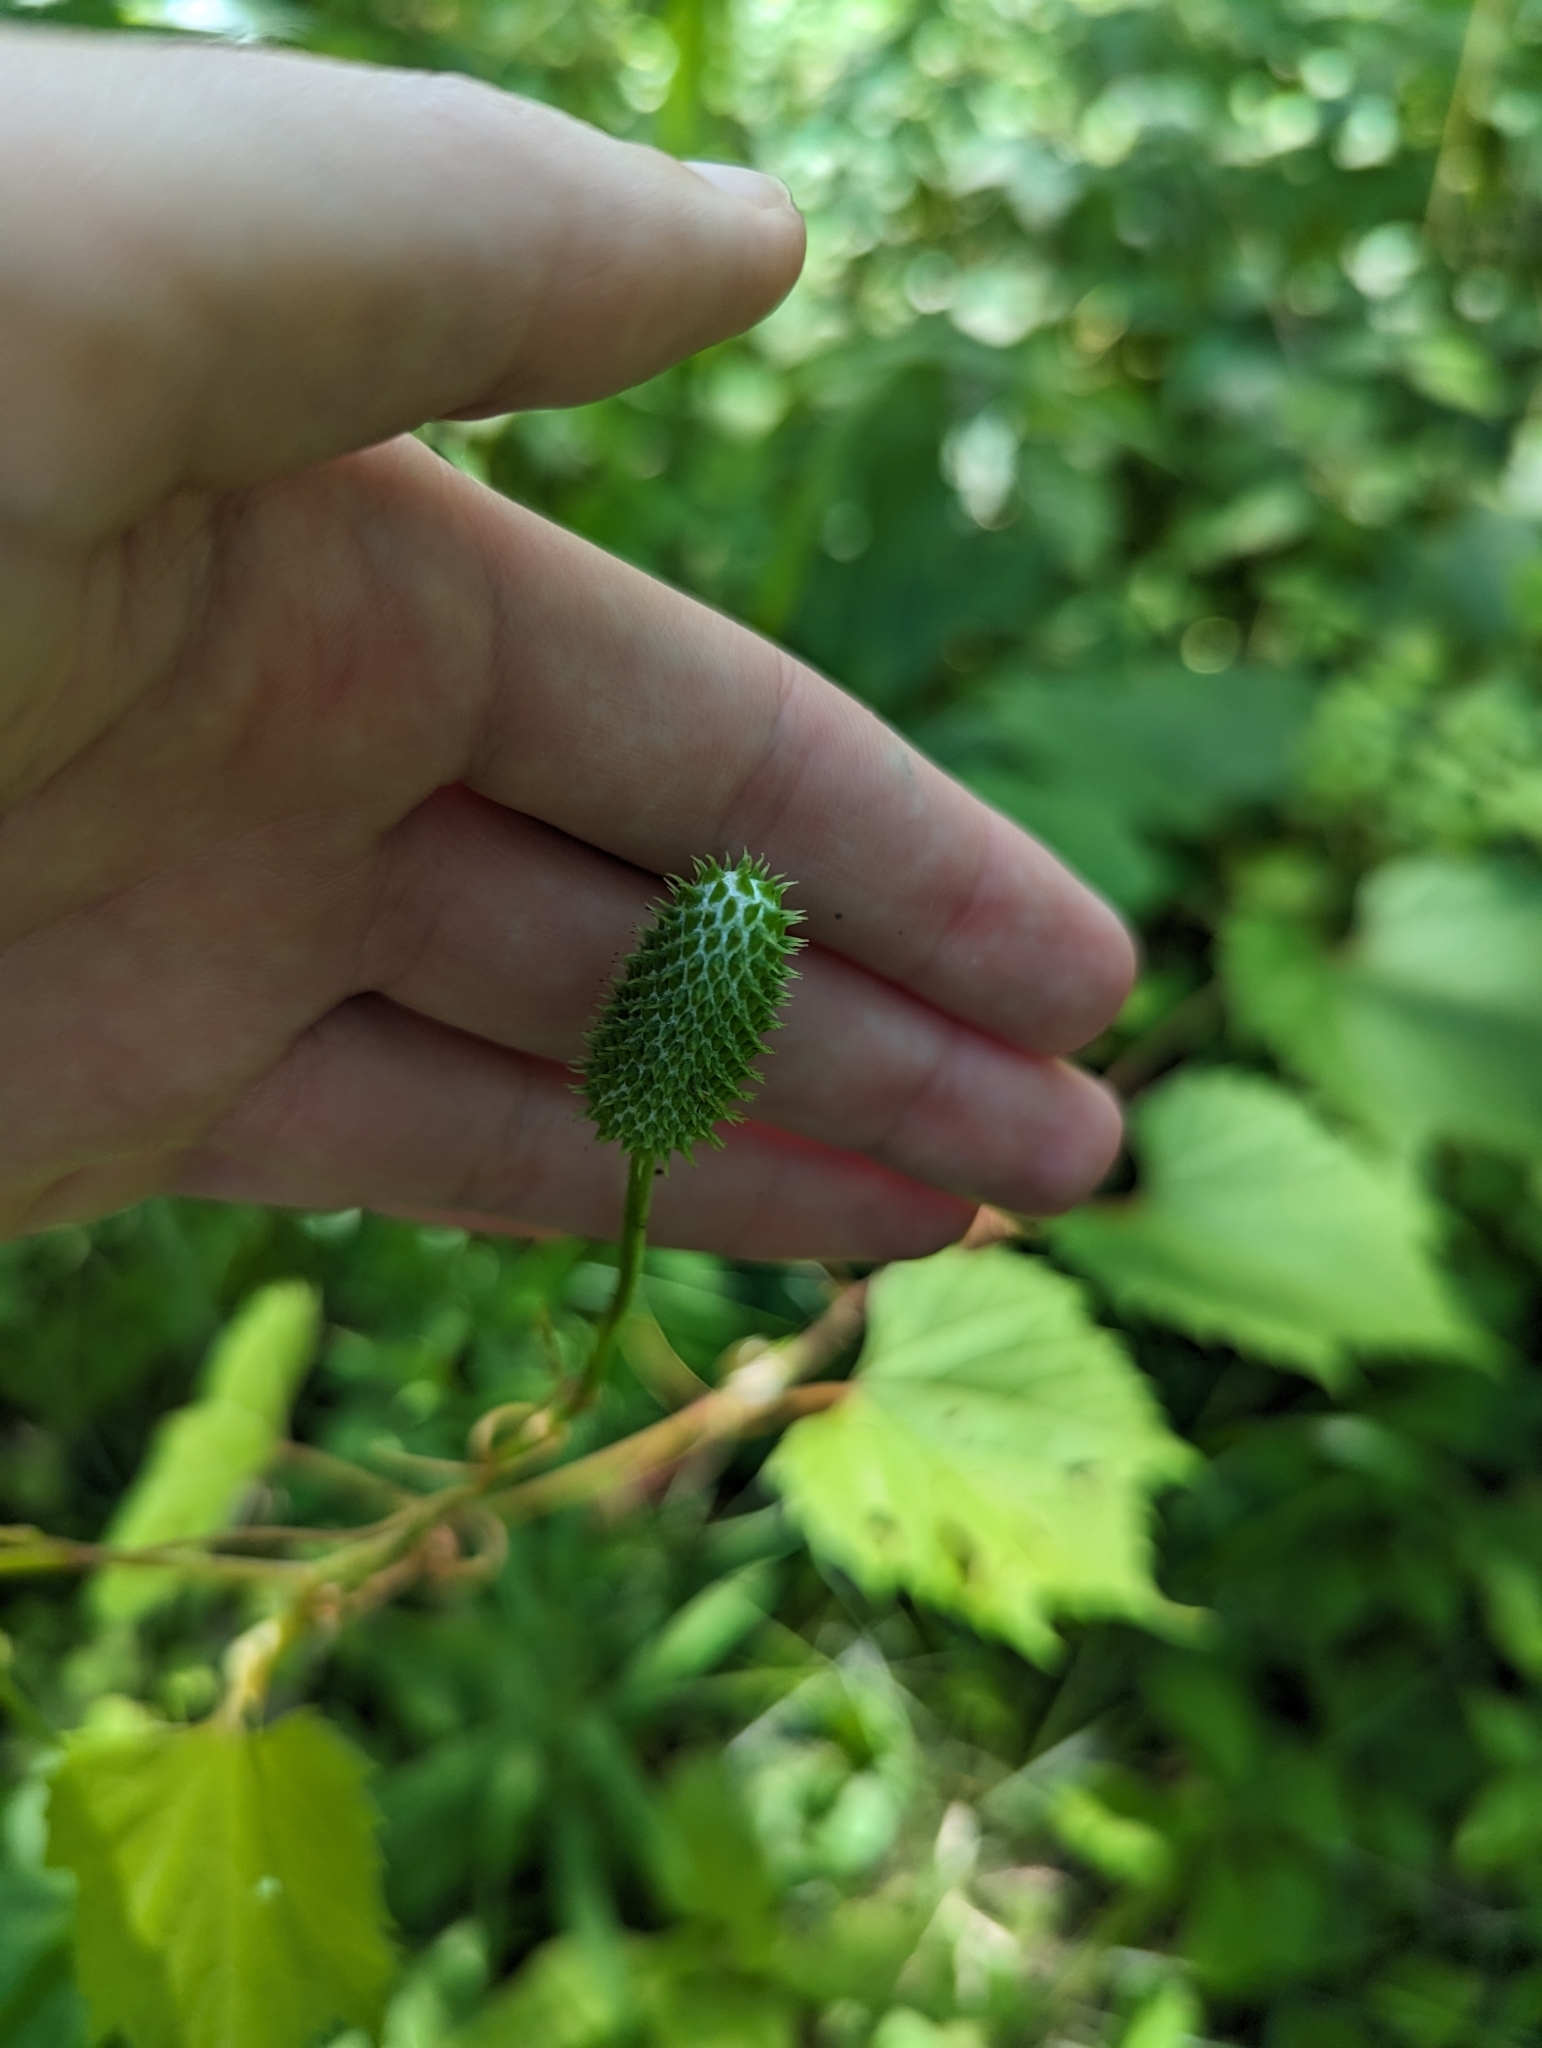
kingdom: Plantae
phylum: Tracheophyta
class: Magnoliopsida
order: Ranunculales
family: Ranunculaceae
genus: Anemone
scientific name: Anemone virginiana
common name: Tall anemone
